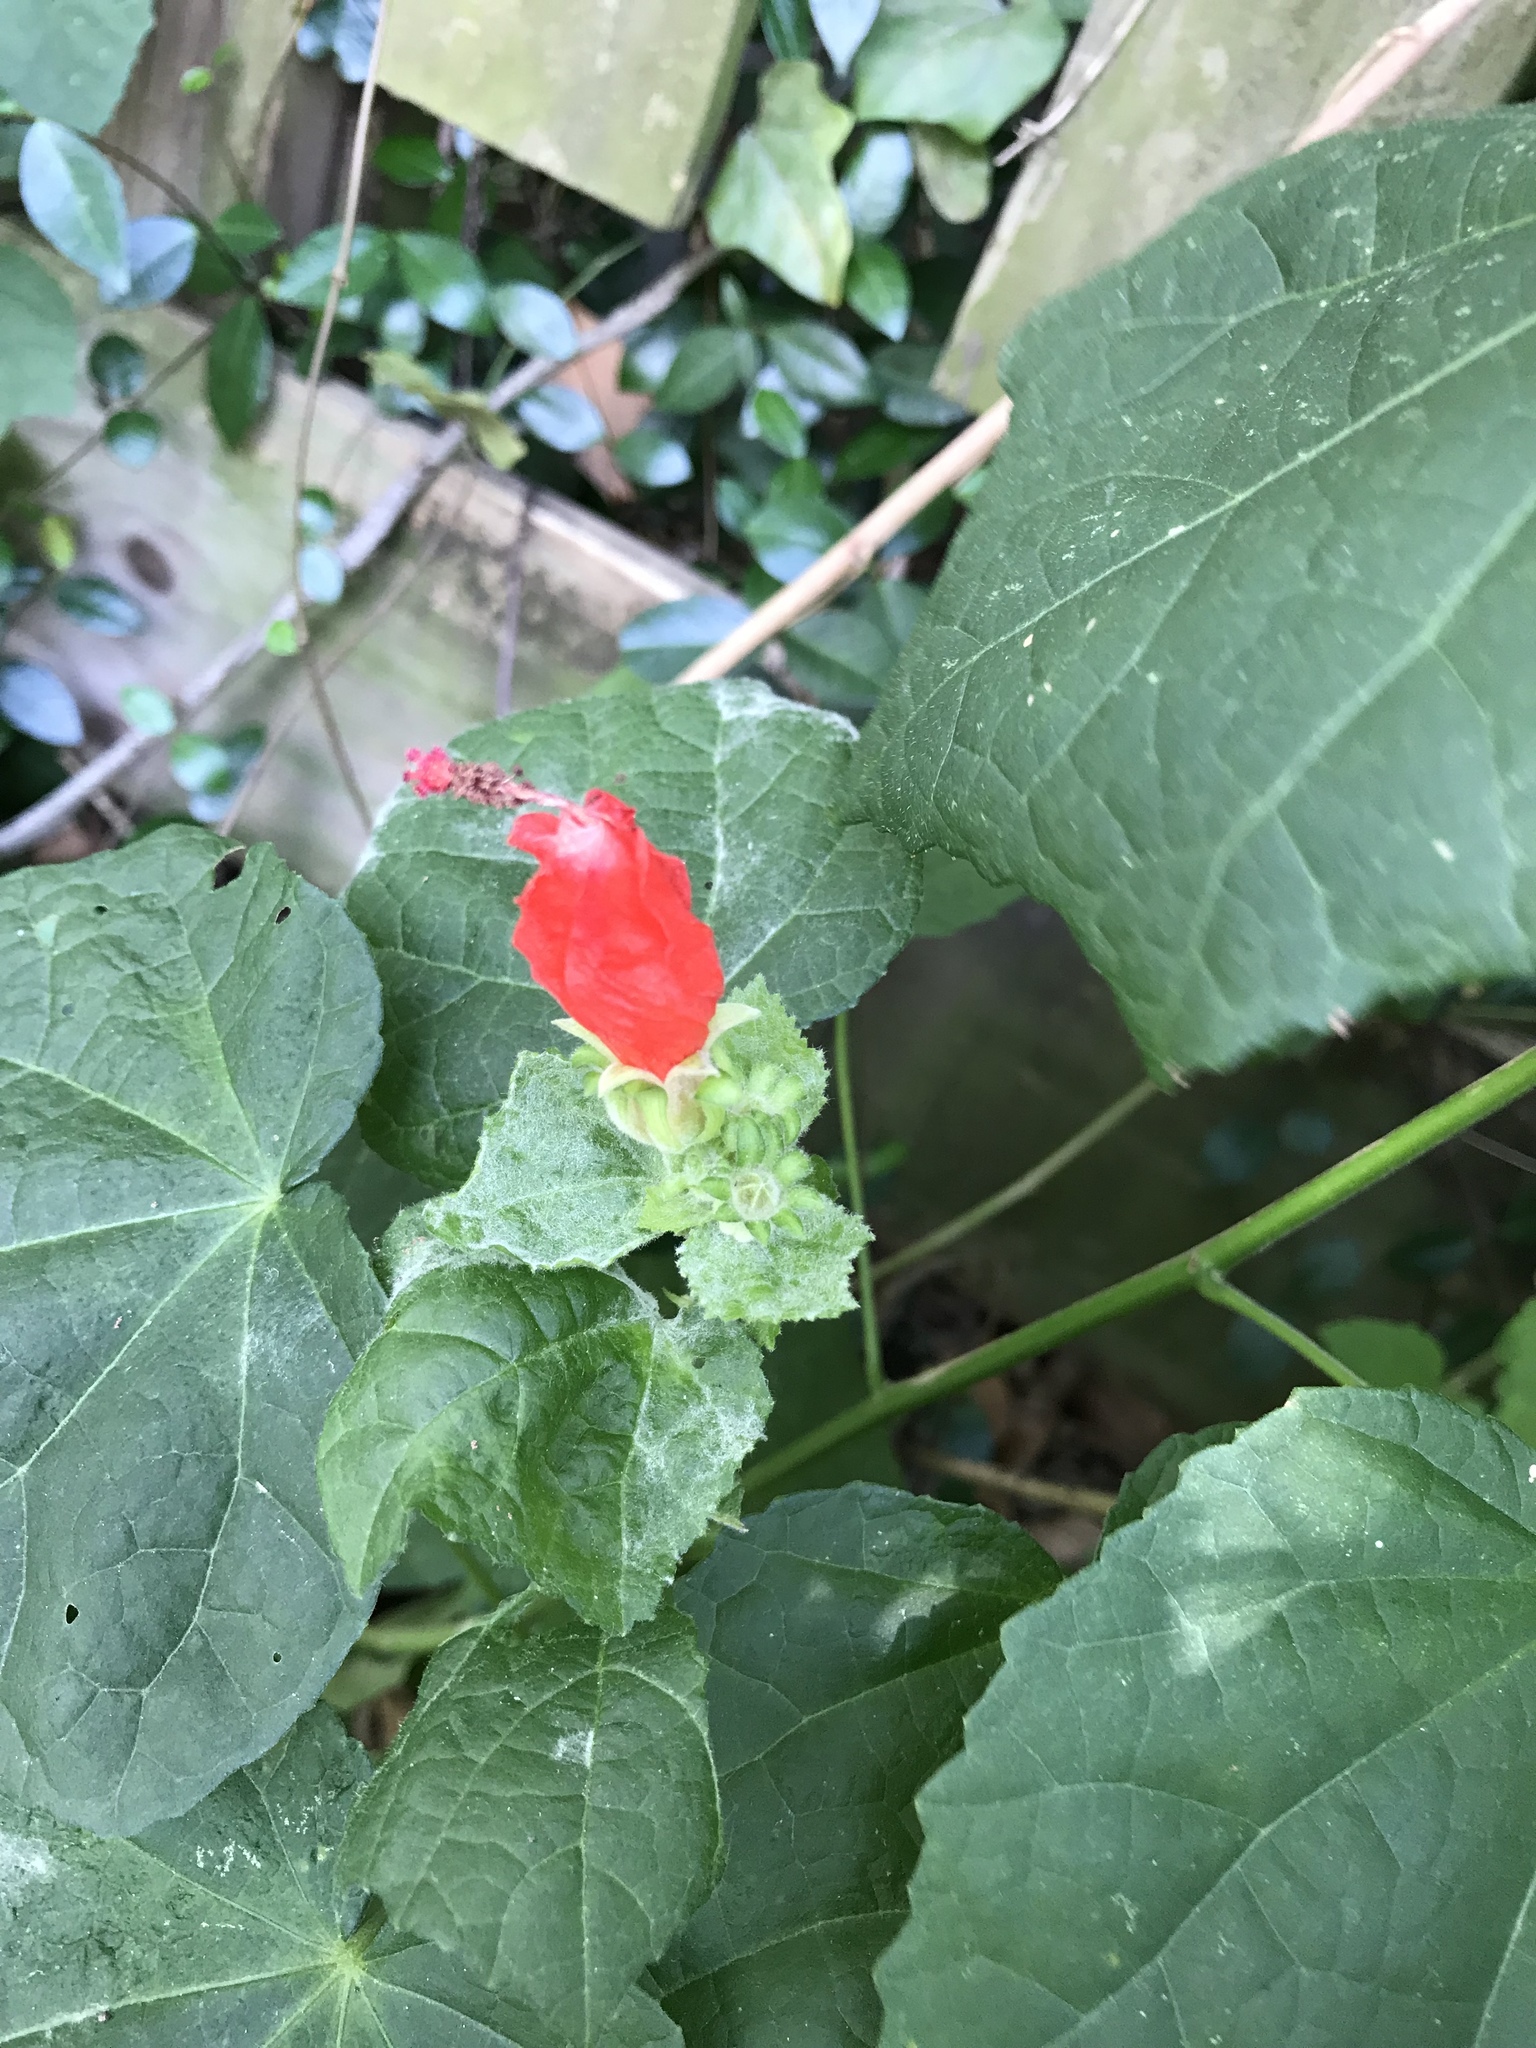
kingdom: Plantae
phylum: Tracheophyta
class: Magnoliopsida
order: Malvales
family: Malvaceae
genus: Malvaviscus
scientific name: Malvaviscus arboreus
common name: Wax mallow
